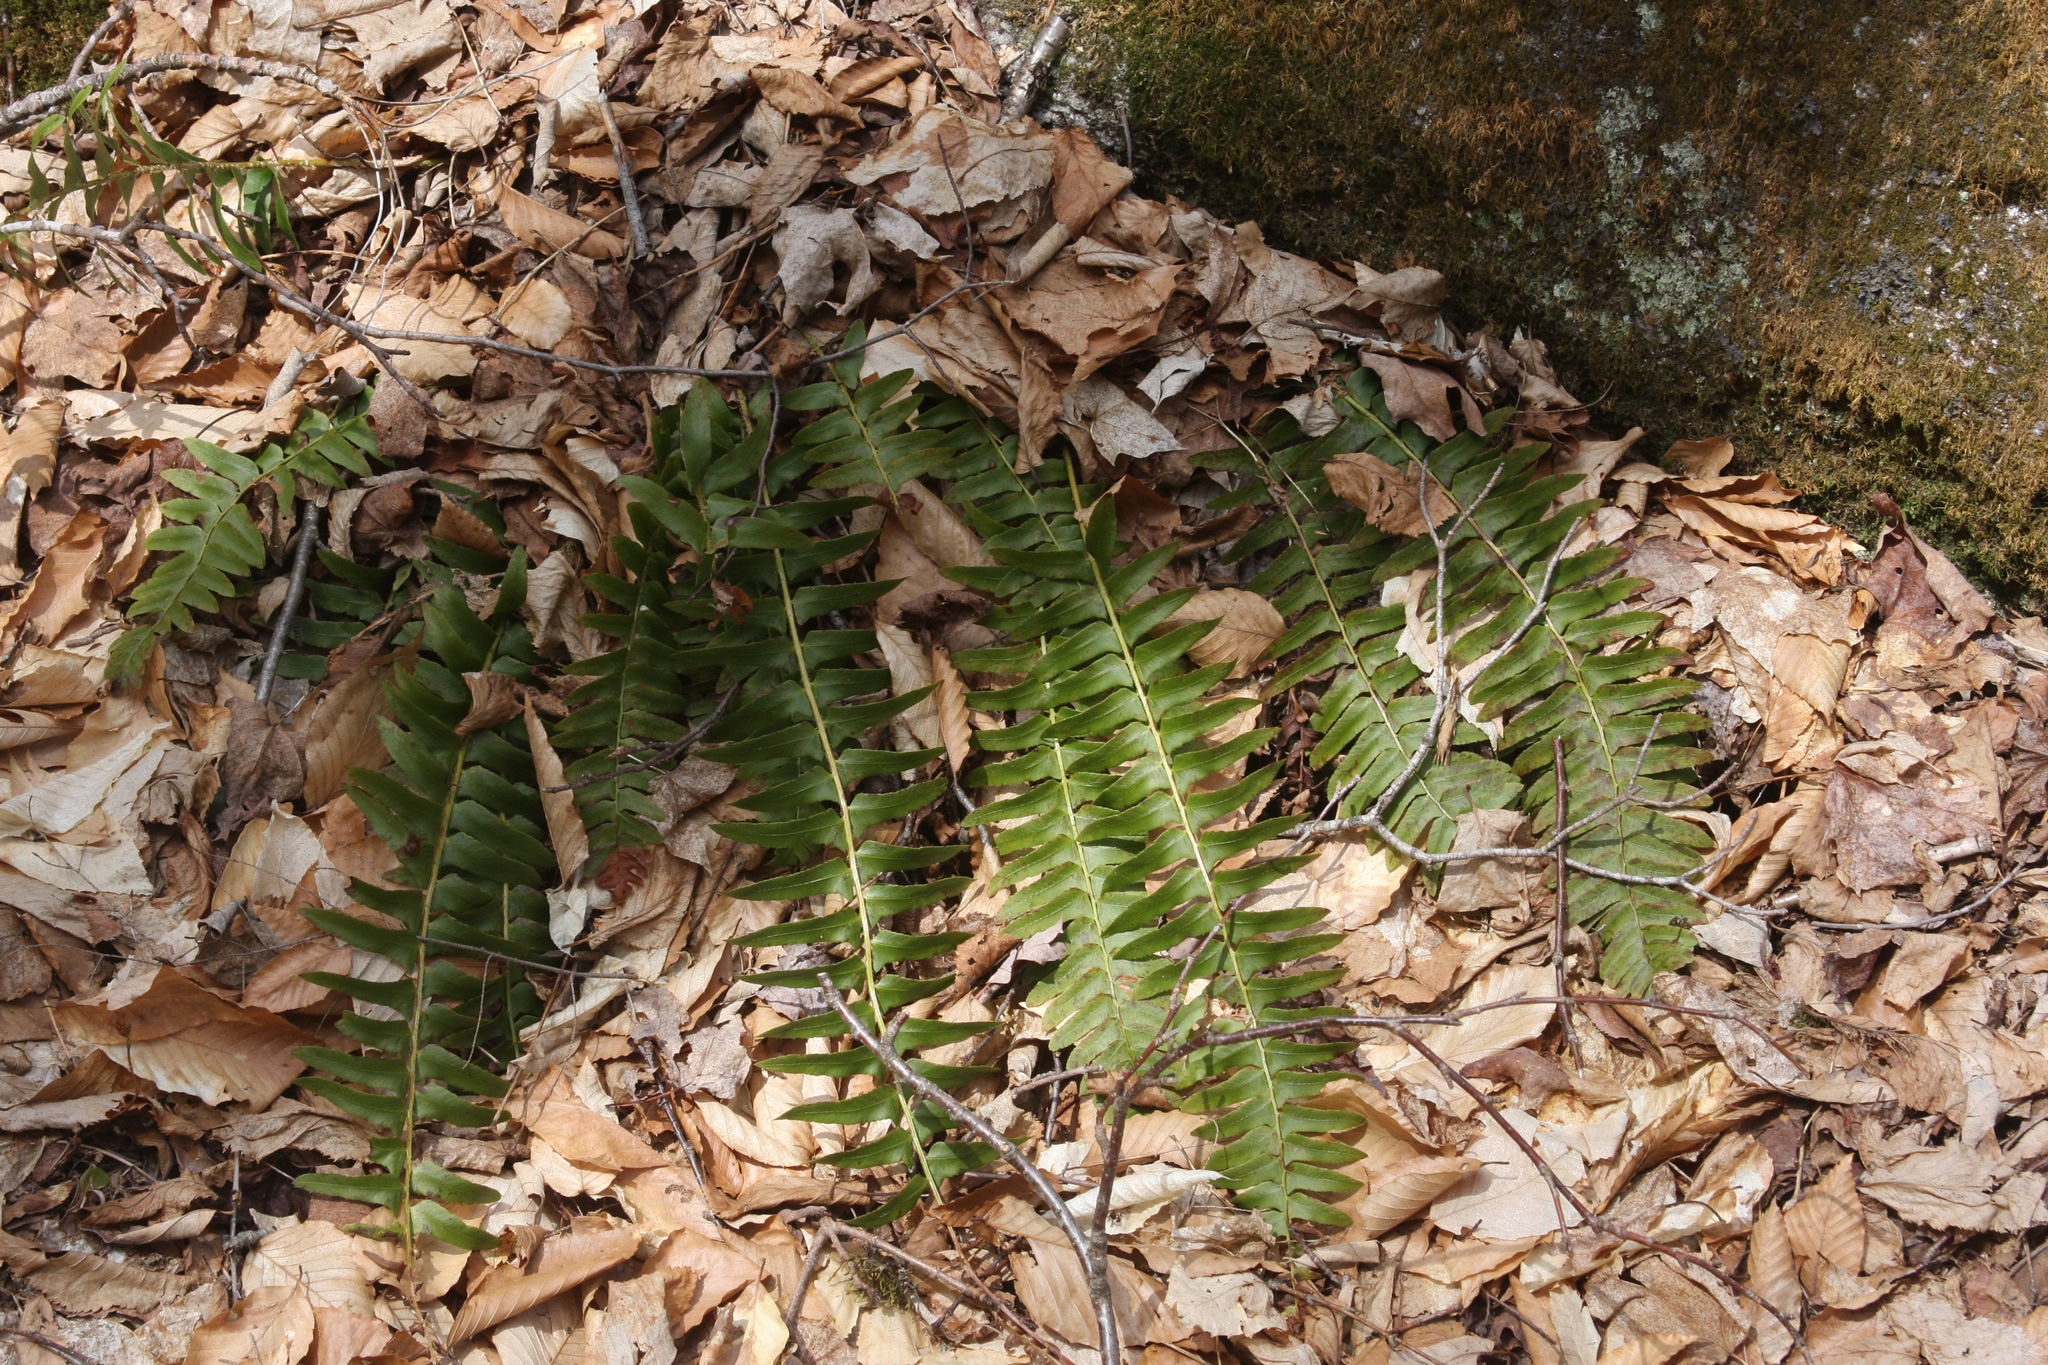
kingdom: Plantae
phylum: Tracheophyta
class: Polypodiopsida
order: Polypodiales
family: Dryopteridaceae
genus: Polystichum
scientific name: Polystichum acrostichoides
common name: Christmas fern
